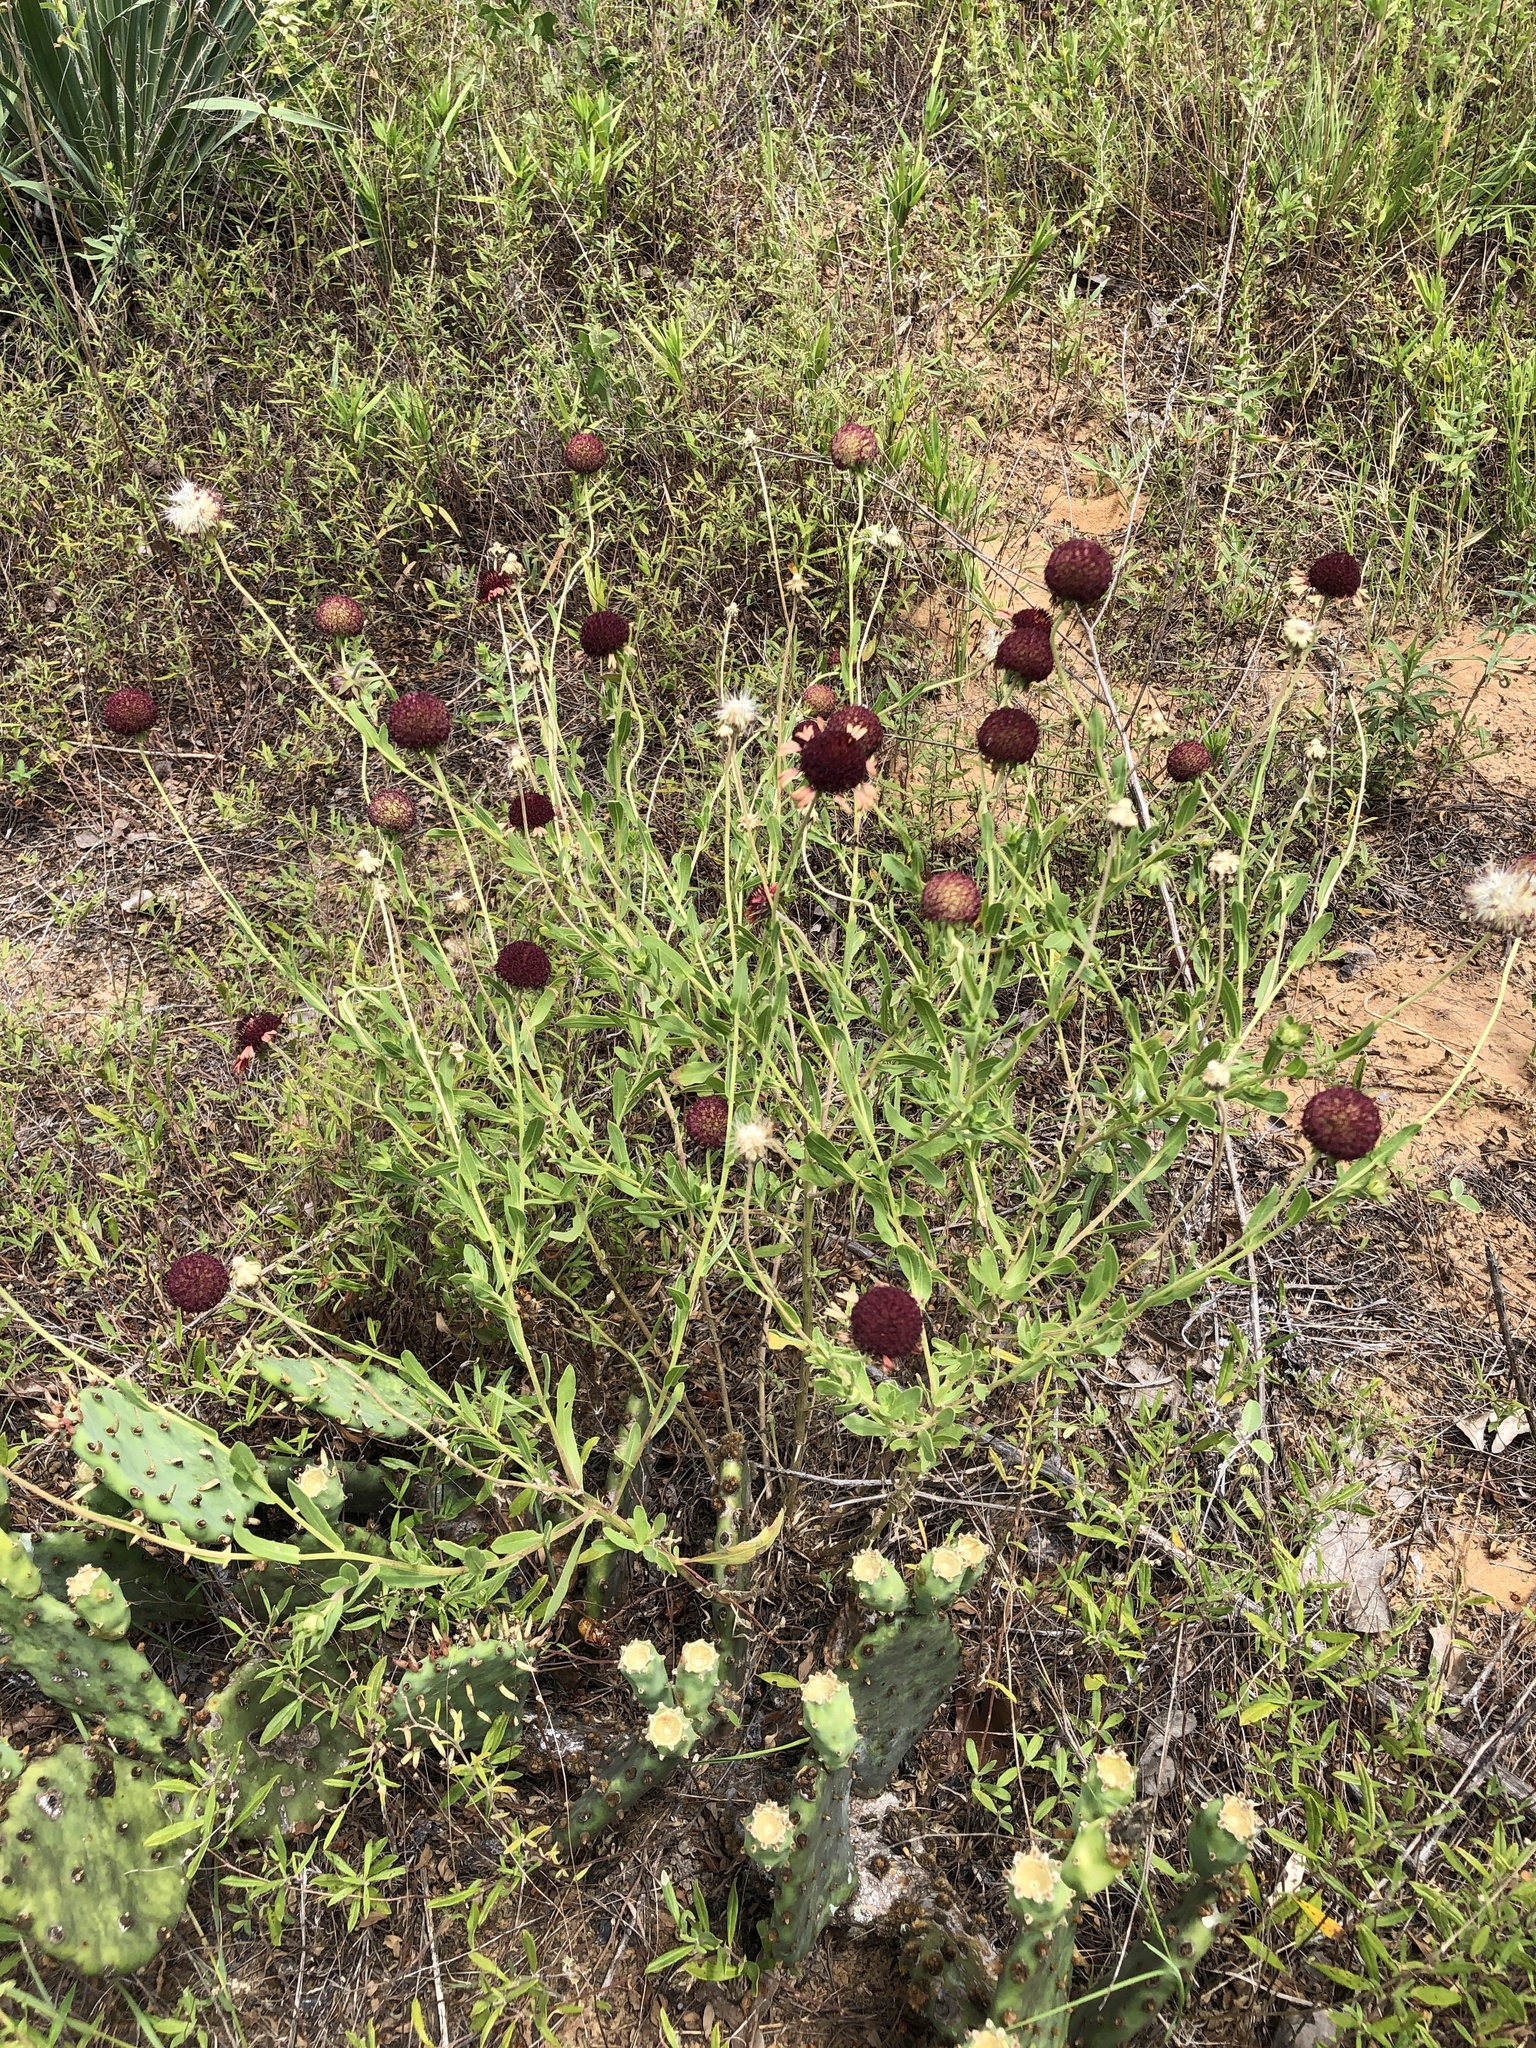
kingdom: Plantae
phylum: Tracheophyta
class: Magnoliopsida
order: Asterales
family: Asteraceae
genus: Gaillardia
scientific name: Gaillardia aestivalis
